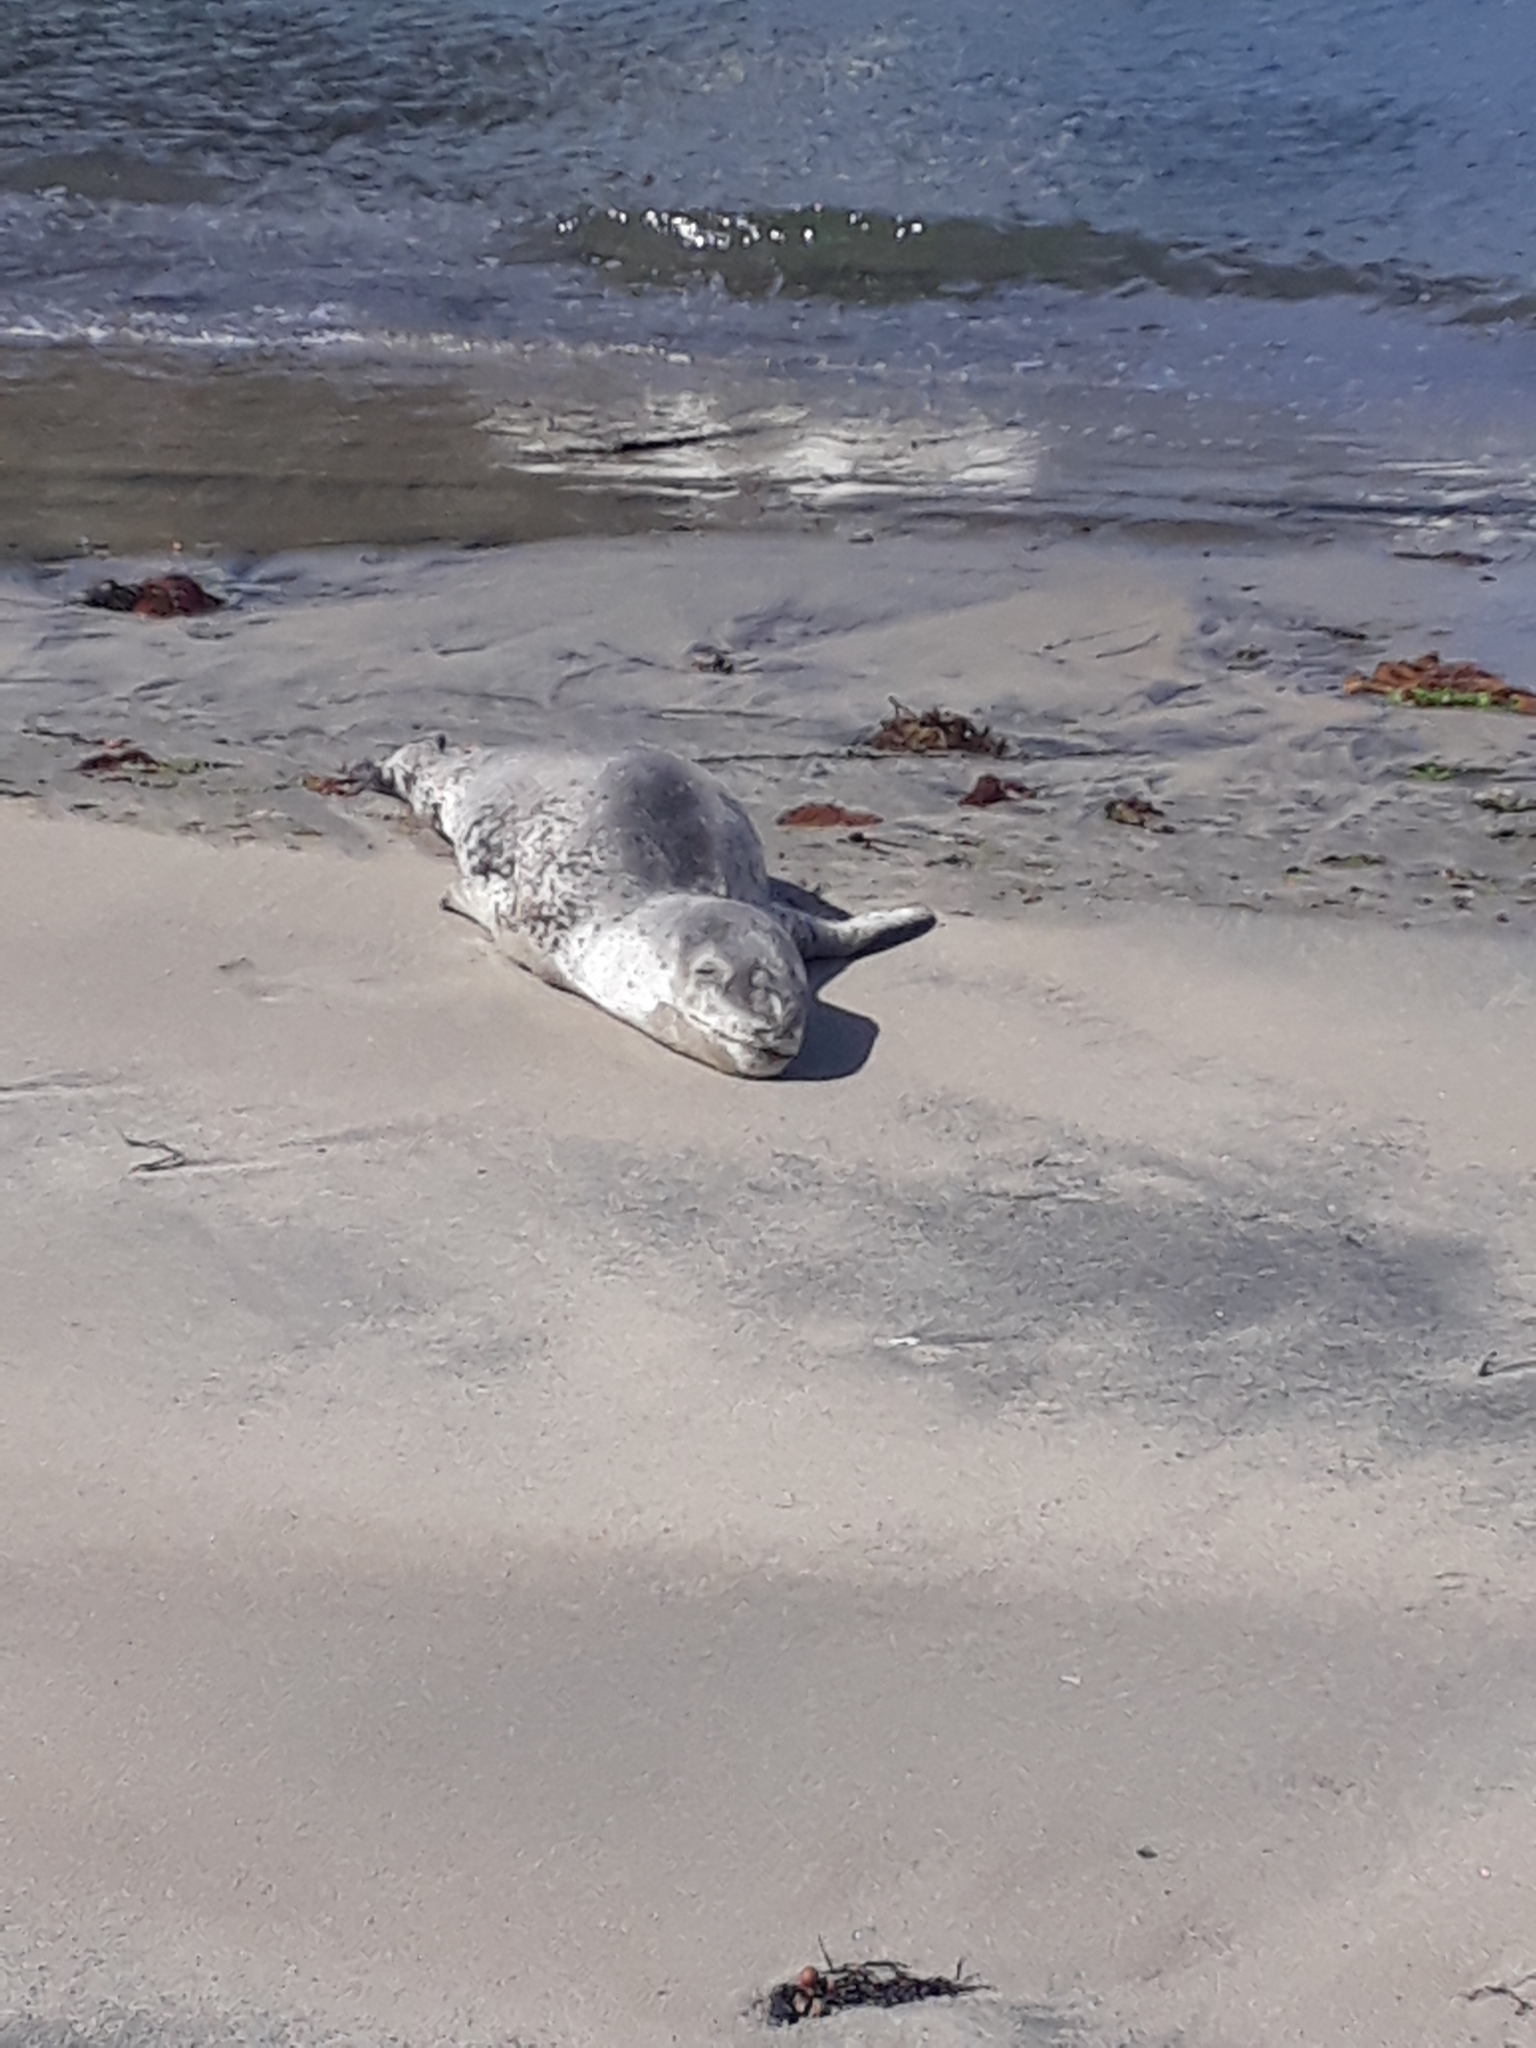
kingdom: Animalia
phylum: Chordata
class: Mammalia
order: Carnivora
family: Phocidae
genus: Hydrurga
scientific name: Hydrurga leptonyx
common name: Leopard seal
